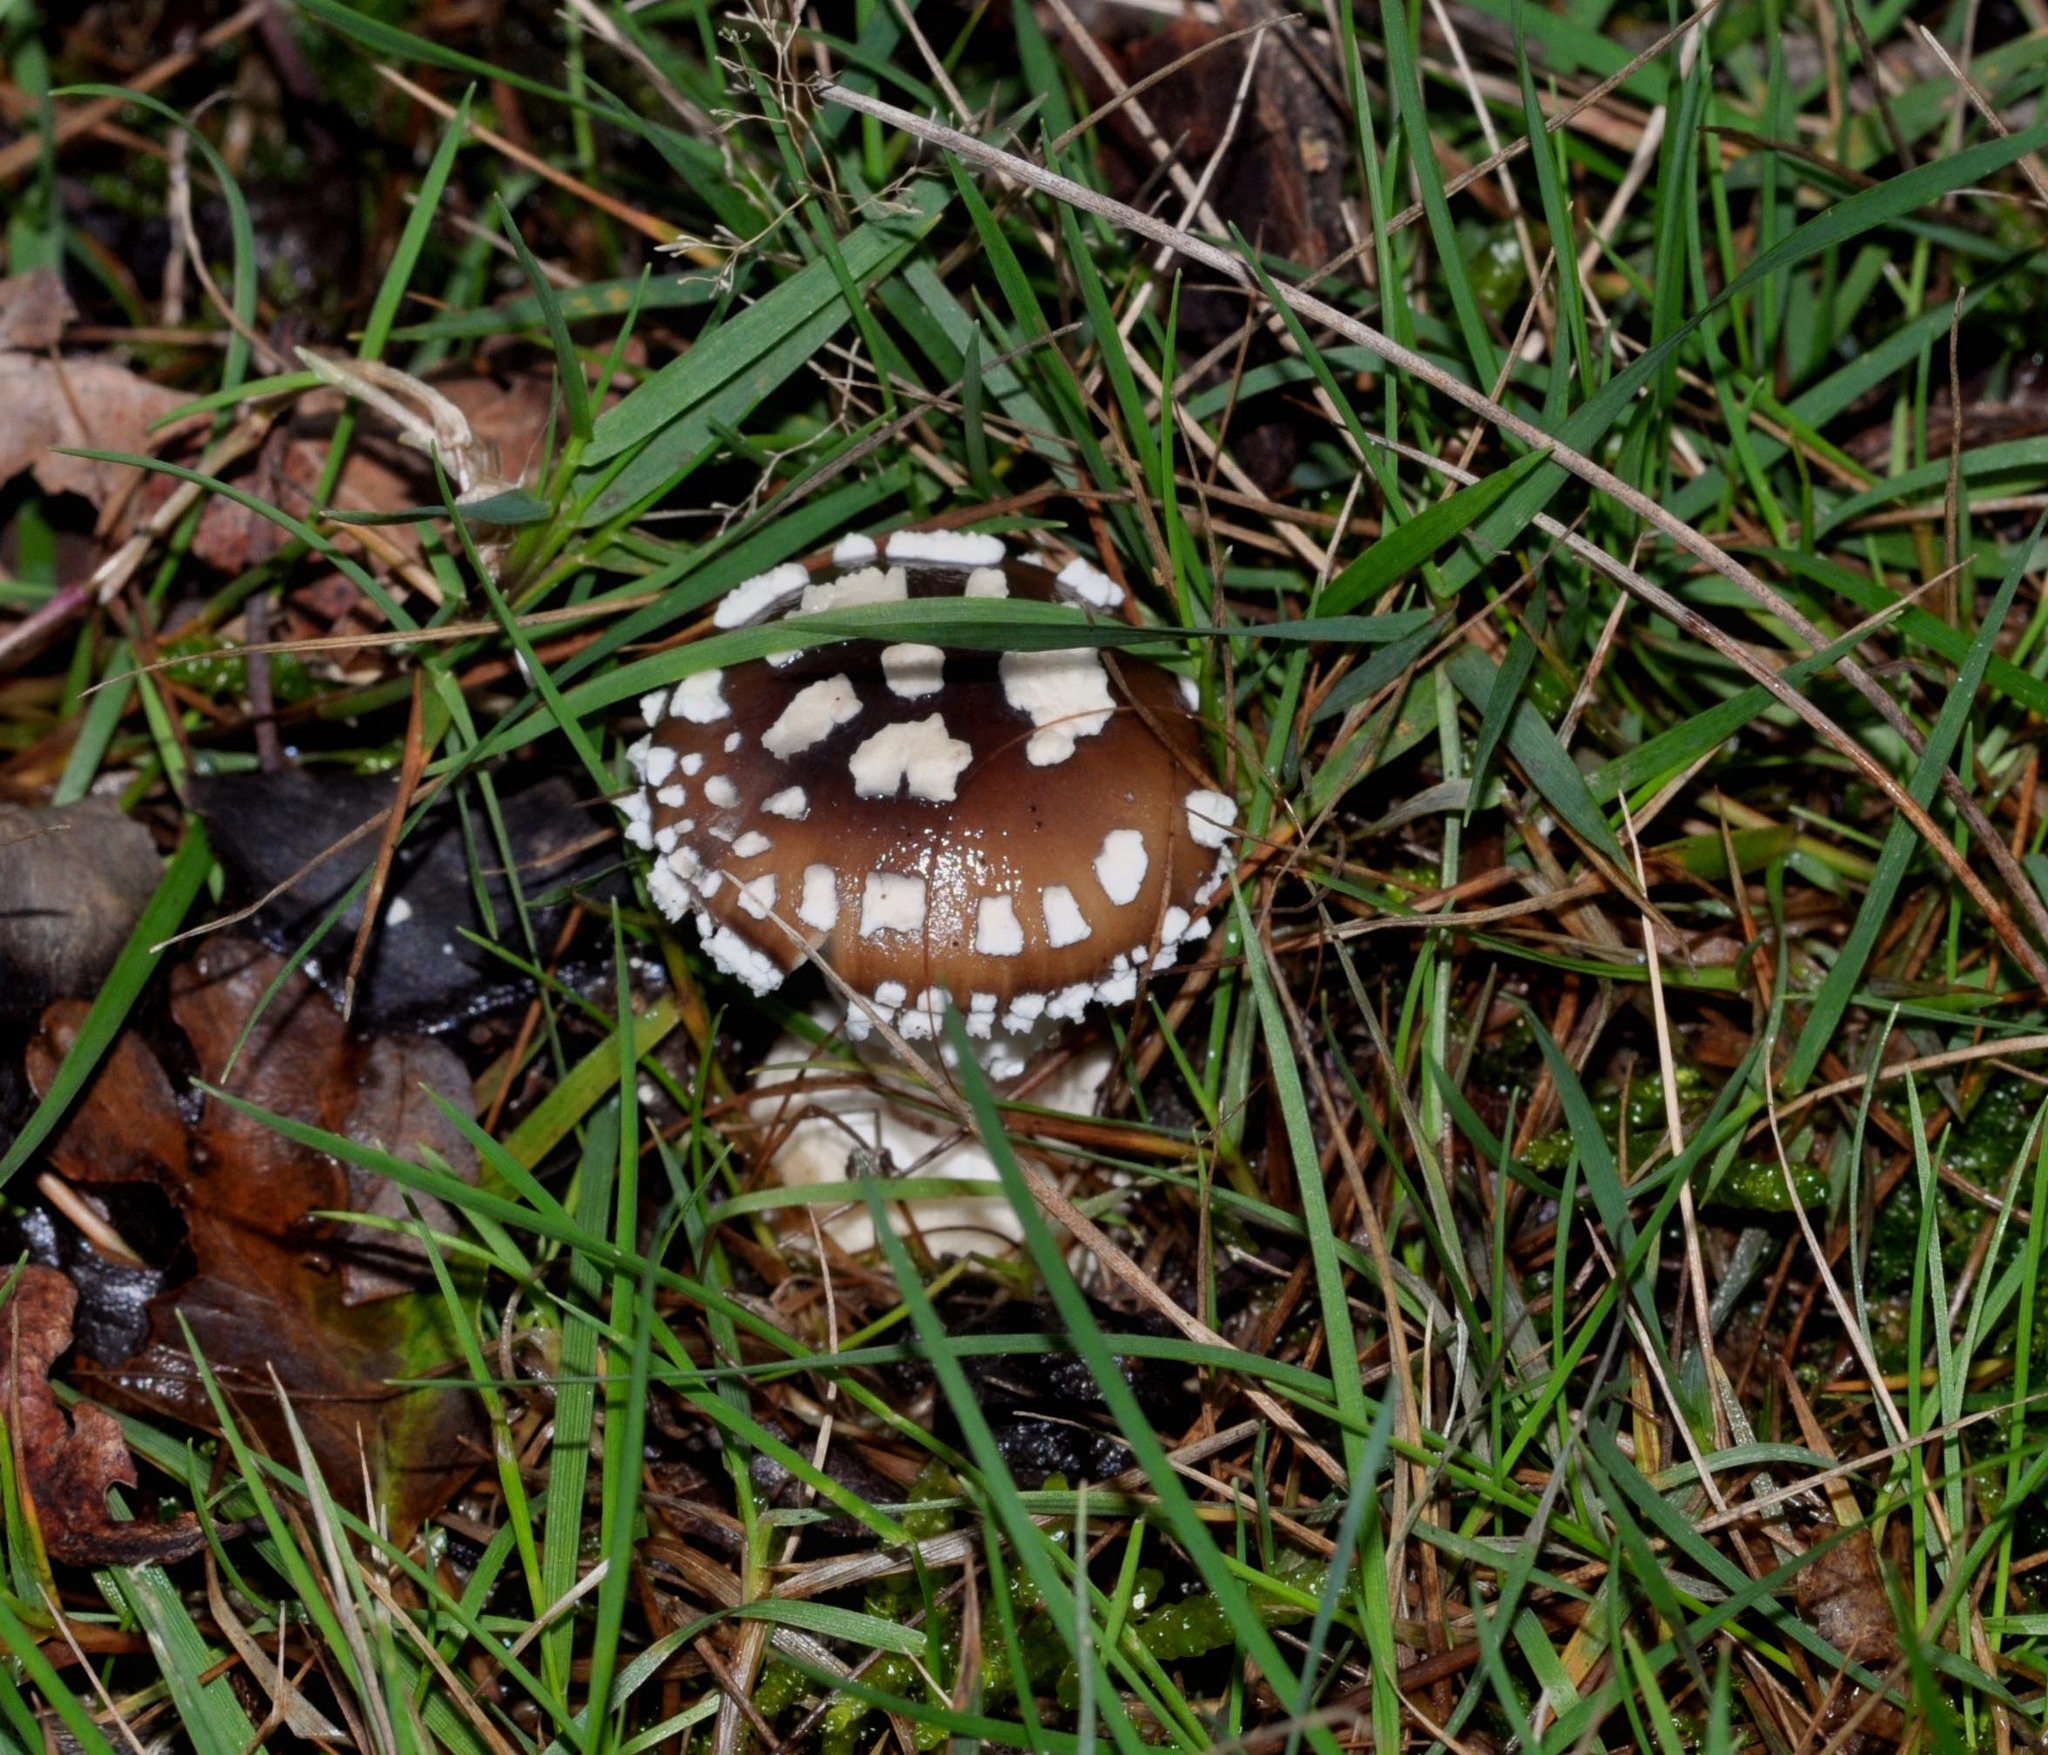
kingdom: Fungi
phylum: Basidiomycota
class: Agaricomycetes
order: Agaricales
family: Amanitaceae
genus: Amanita
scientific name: Amanita pantherina
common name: Panthercap
